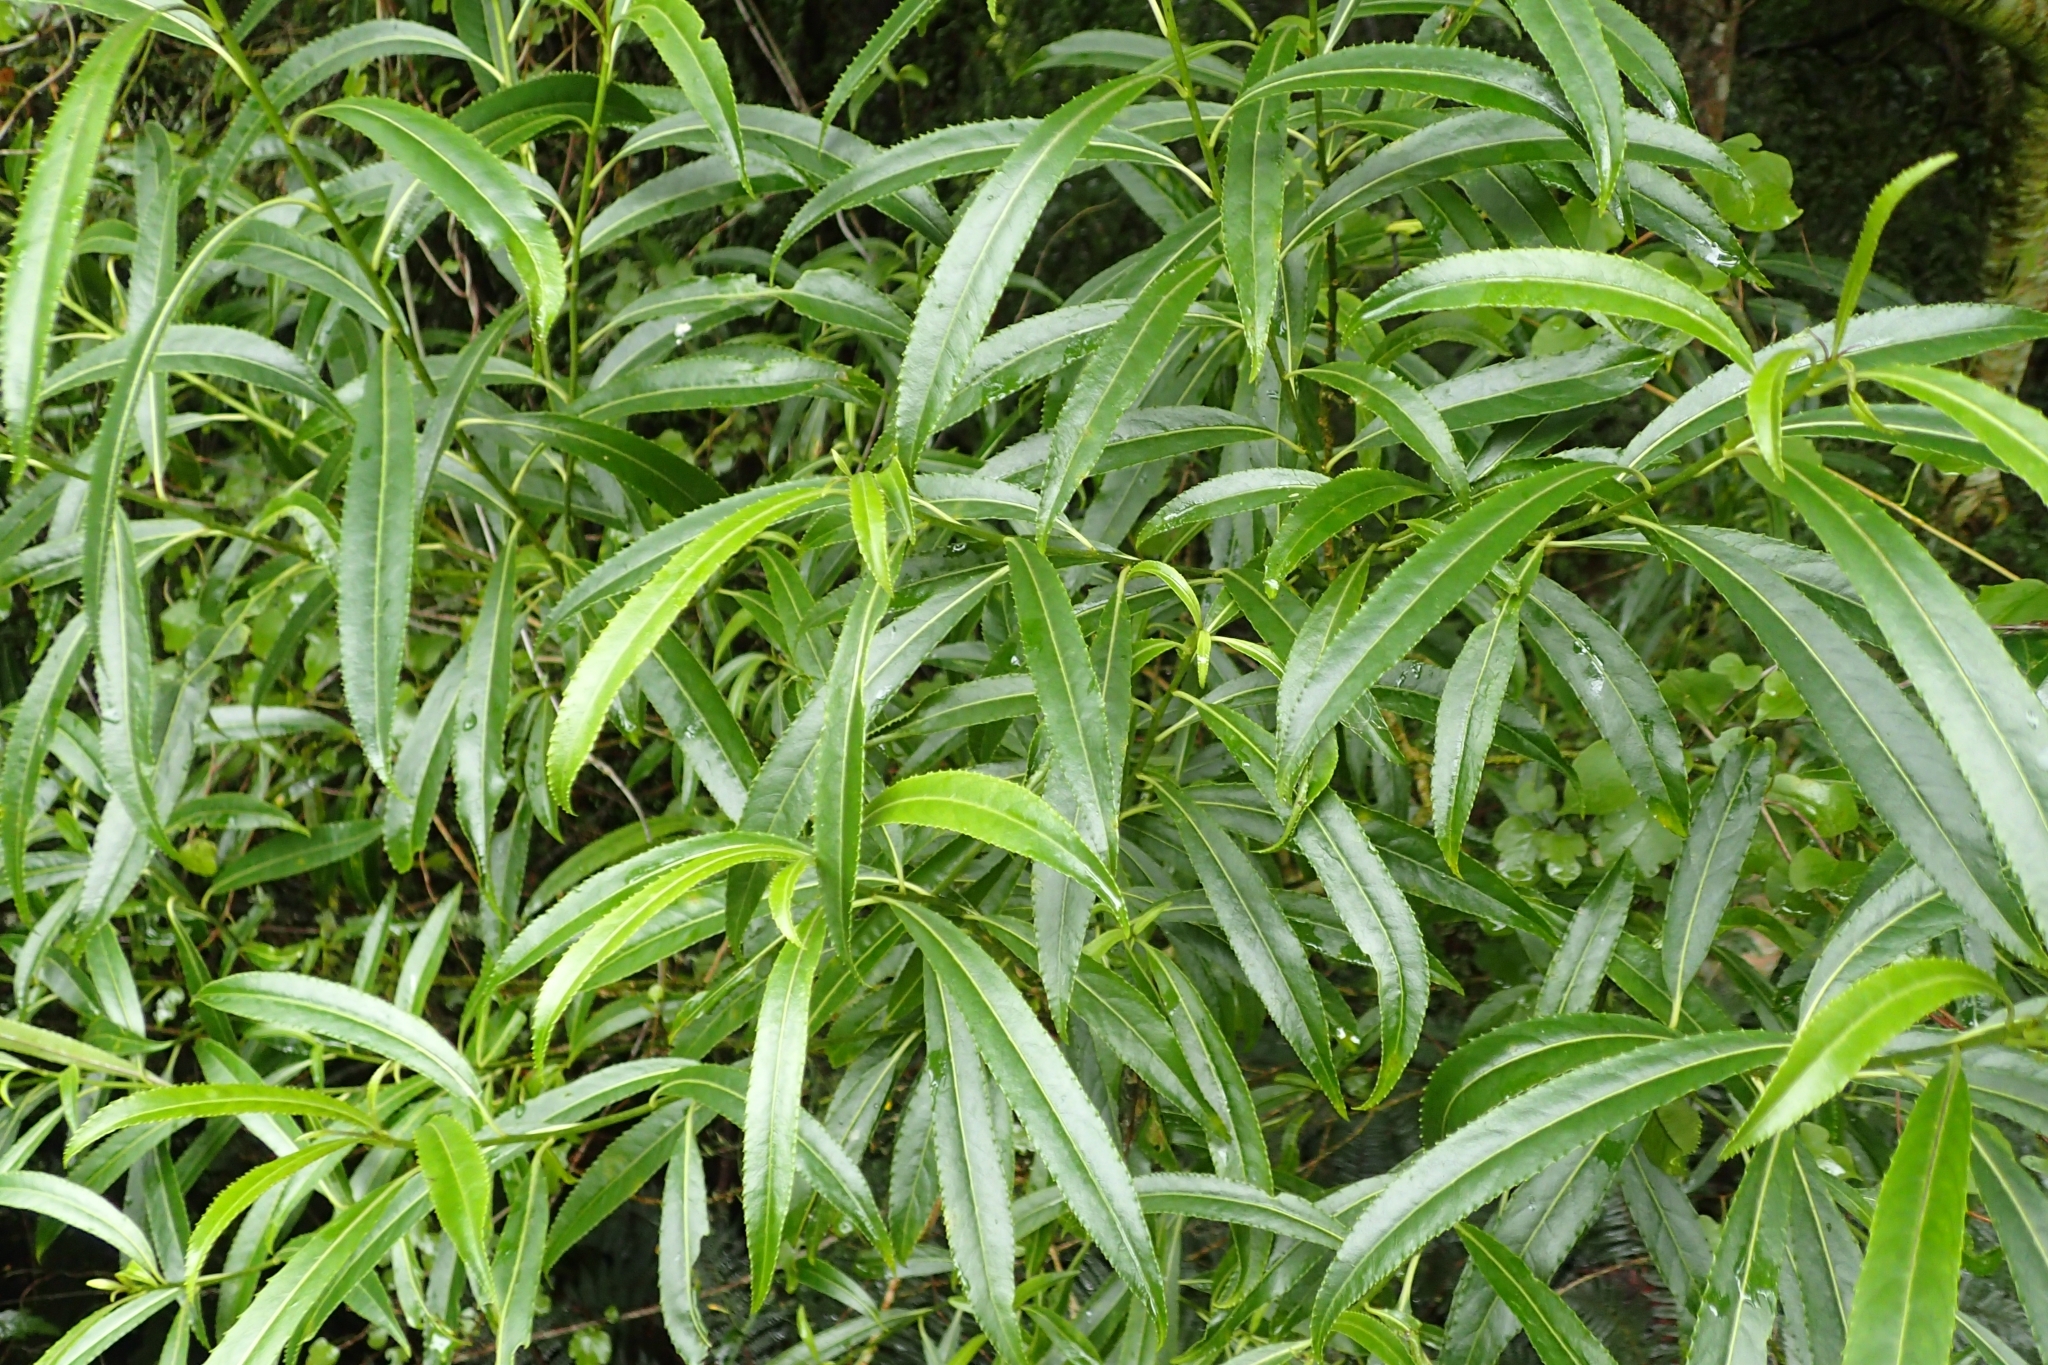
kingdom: Plantae
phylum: Tracheophyta
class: Magnoliopsida
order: Malpighiales
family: Violaceae
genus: Melicytus
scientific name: Melicytus lanceolatus
